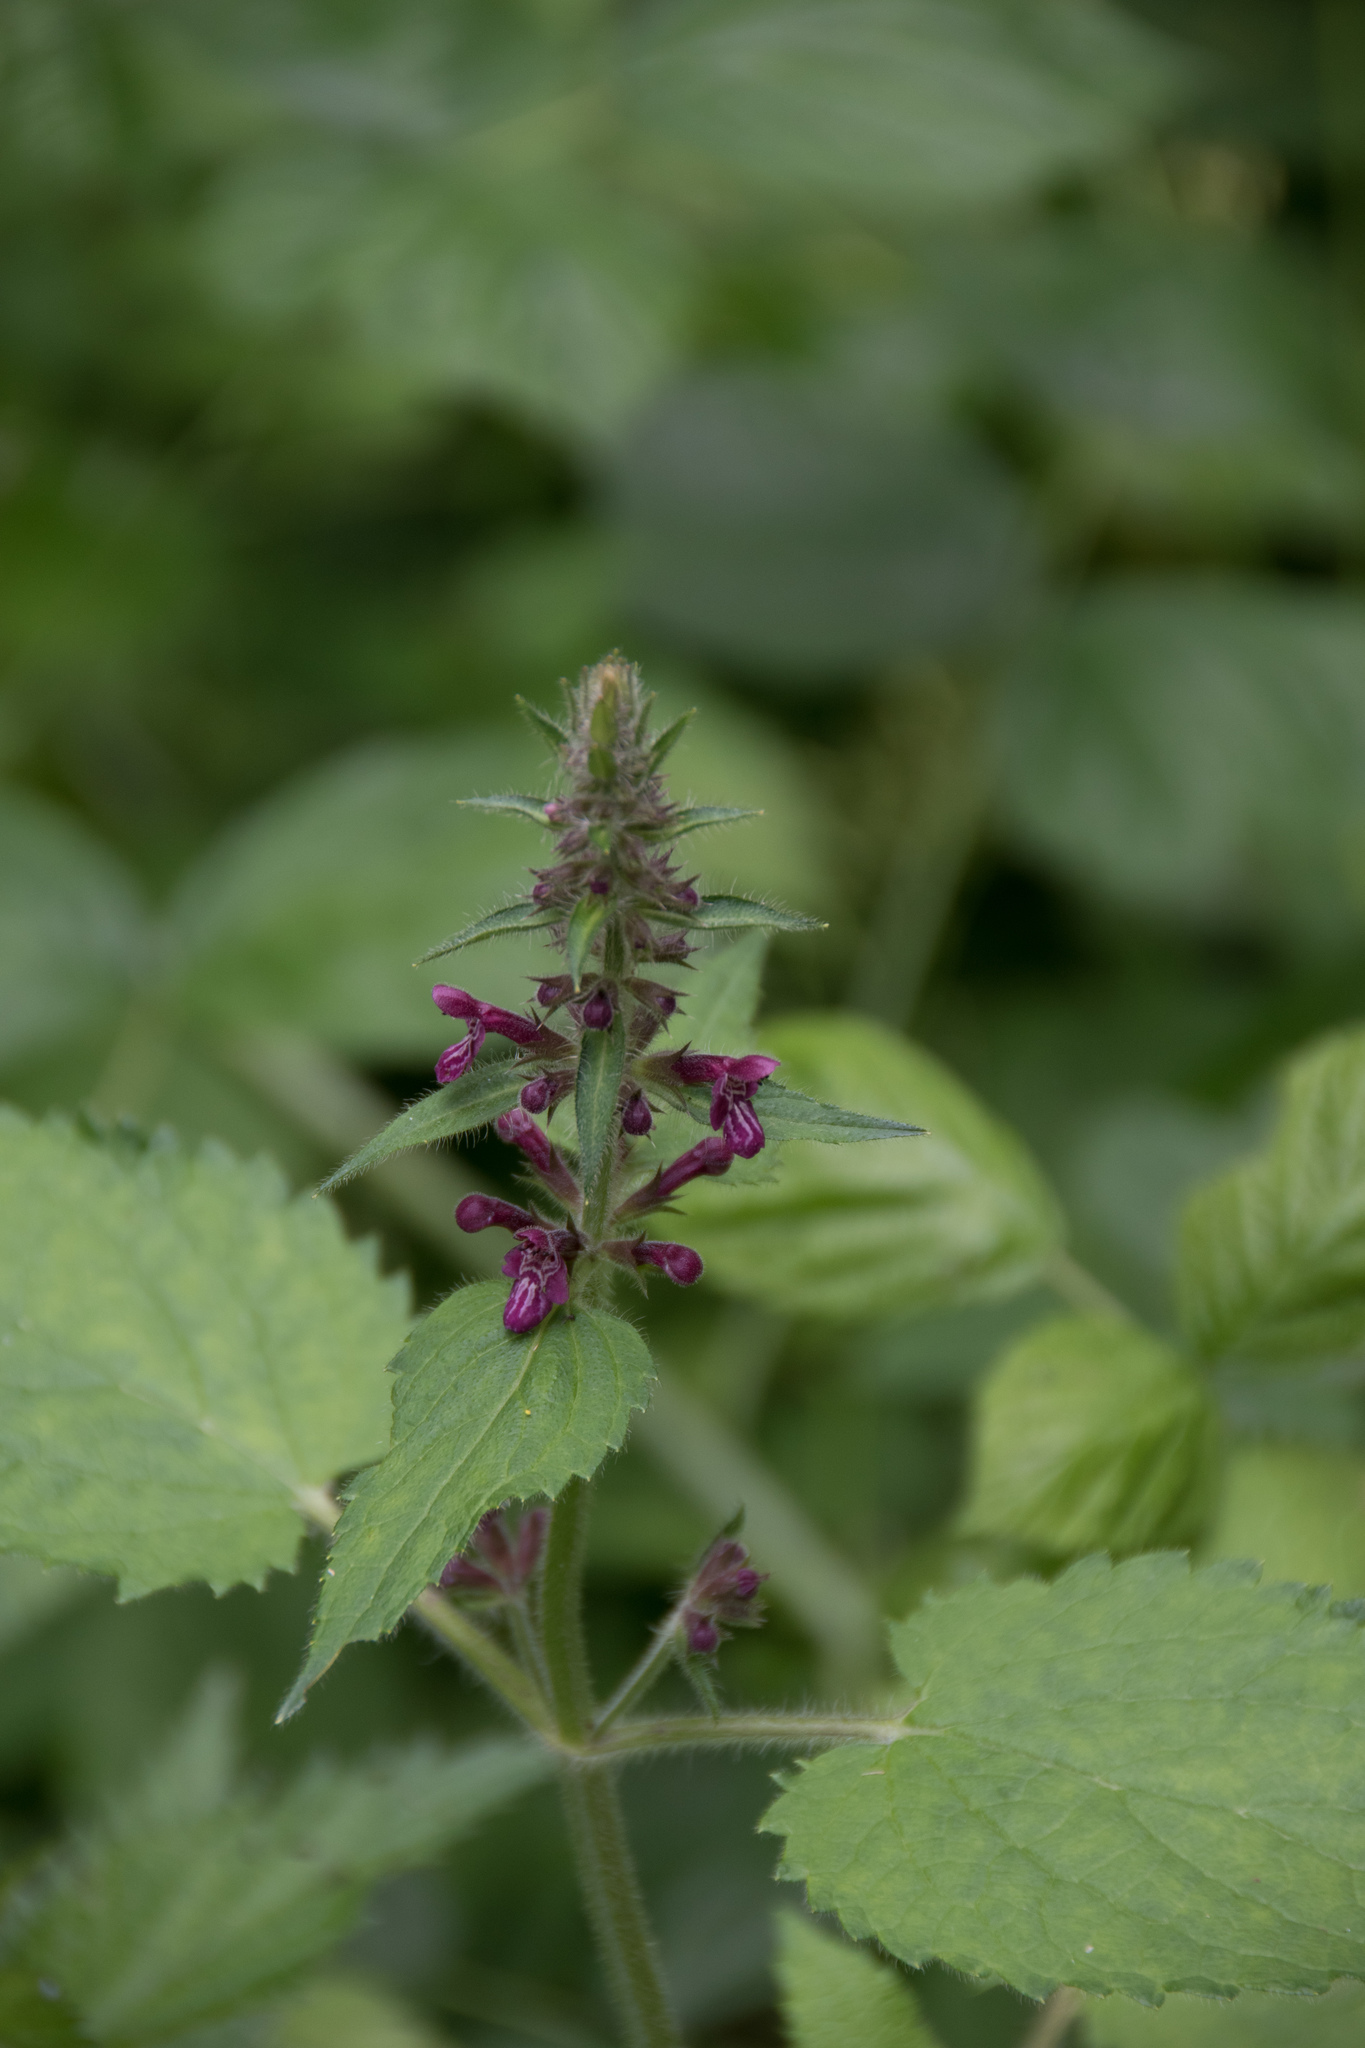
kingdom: Plantae
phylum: Tracheophyta
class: Magnoliopsida
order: Lamiales
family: Lamiaceae
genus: Stachys
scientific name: Stachys sylvatica
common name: Hedge woundwort
